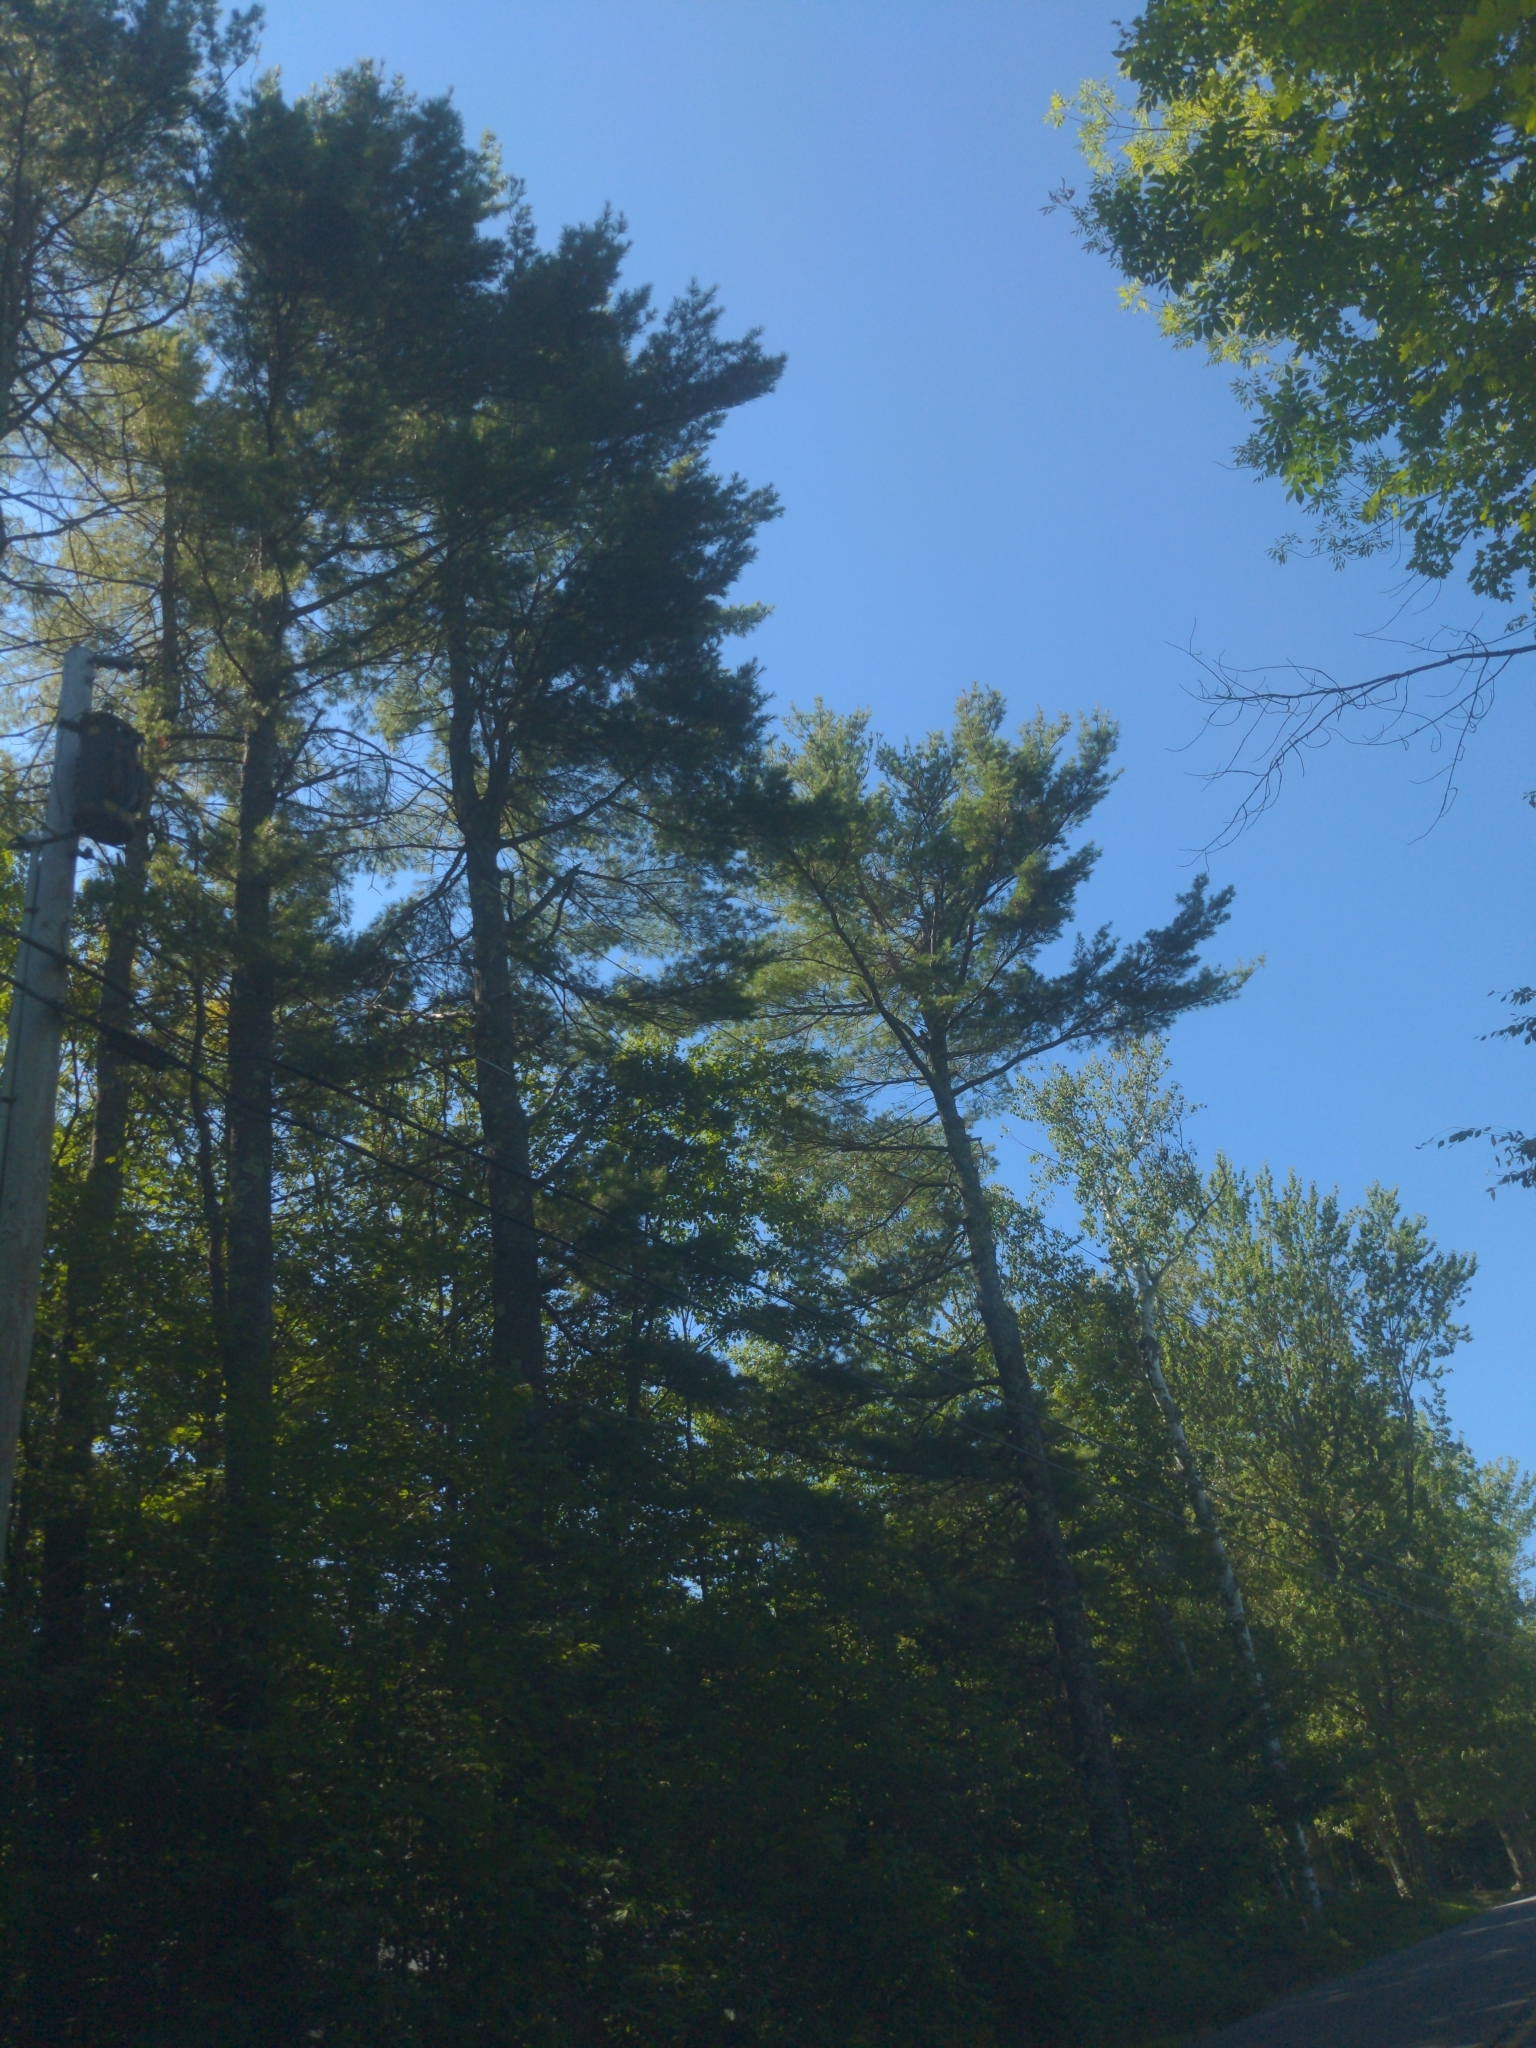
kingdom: Plantae
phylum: Tracheophyta
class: Pinopsida
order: Pinales
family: Pinaceae
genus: Pinus
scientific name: Pinus strobus
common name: Weymouth pine
